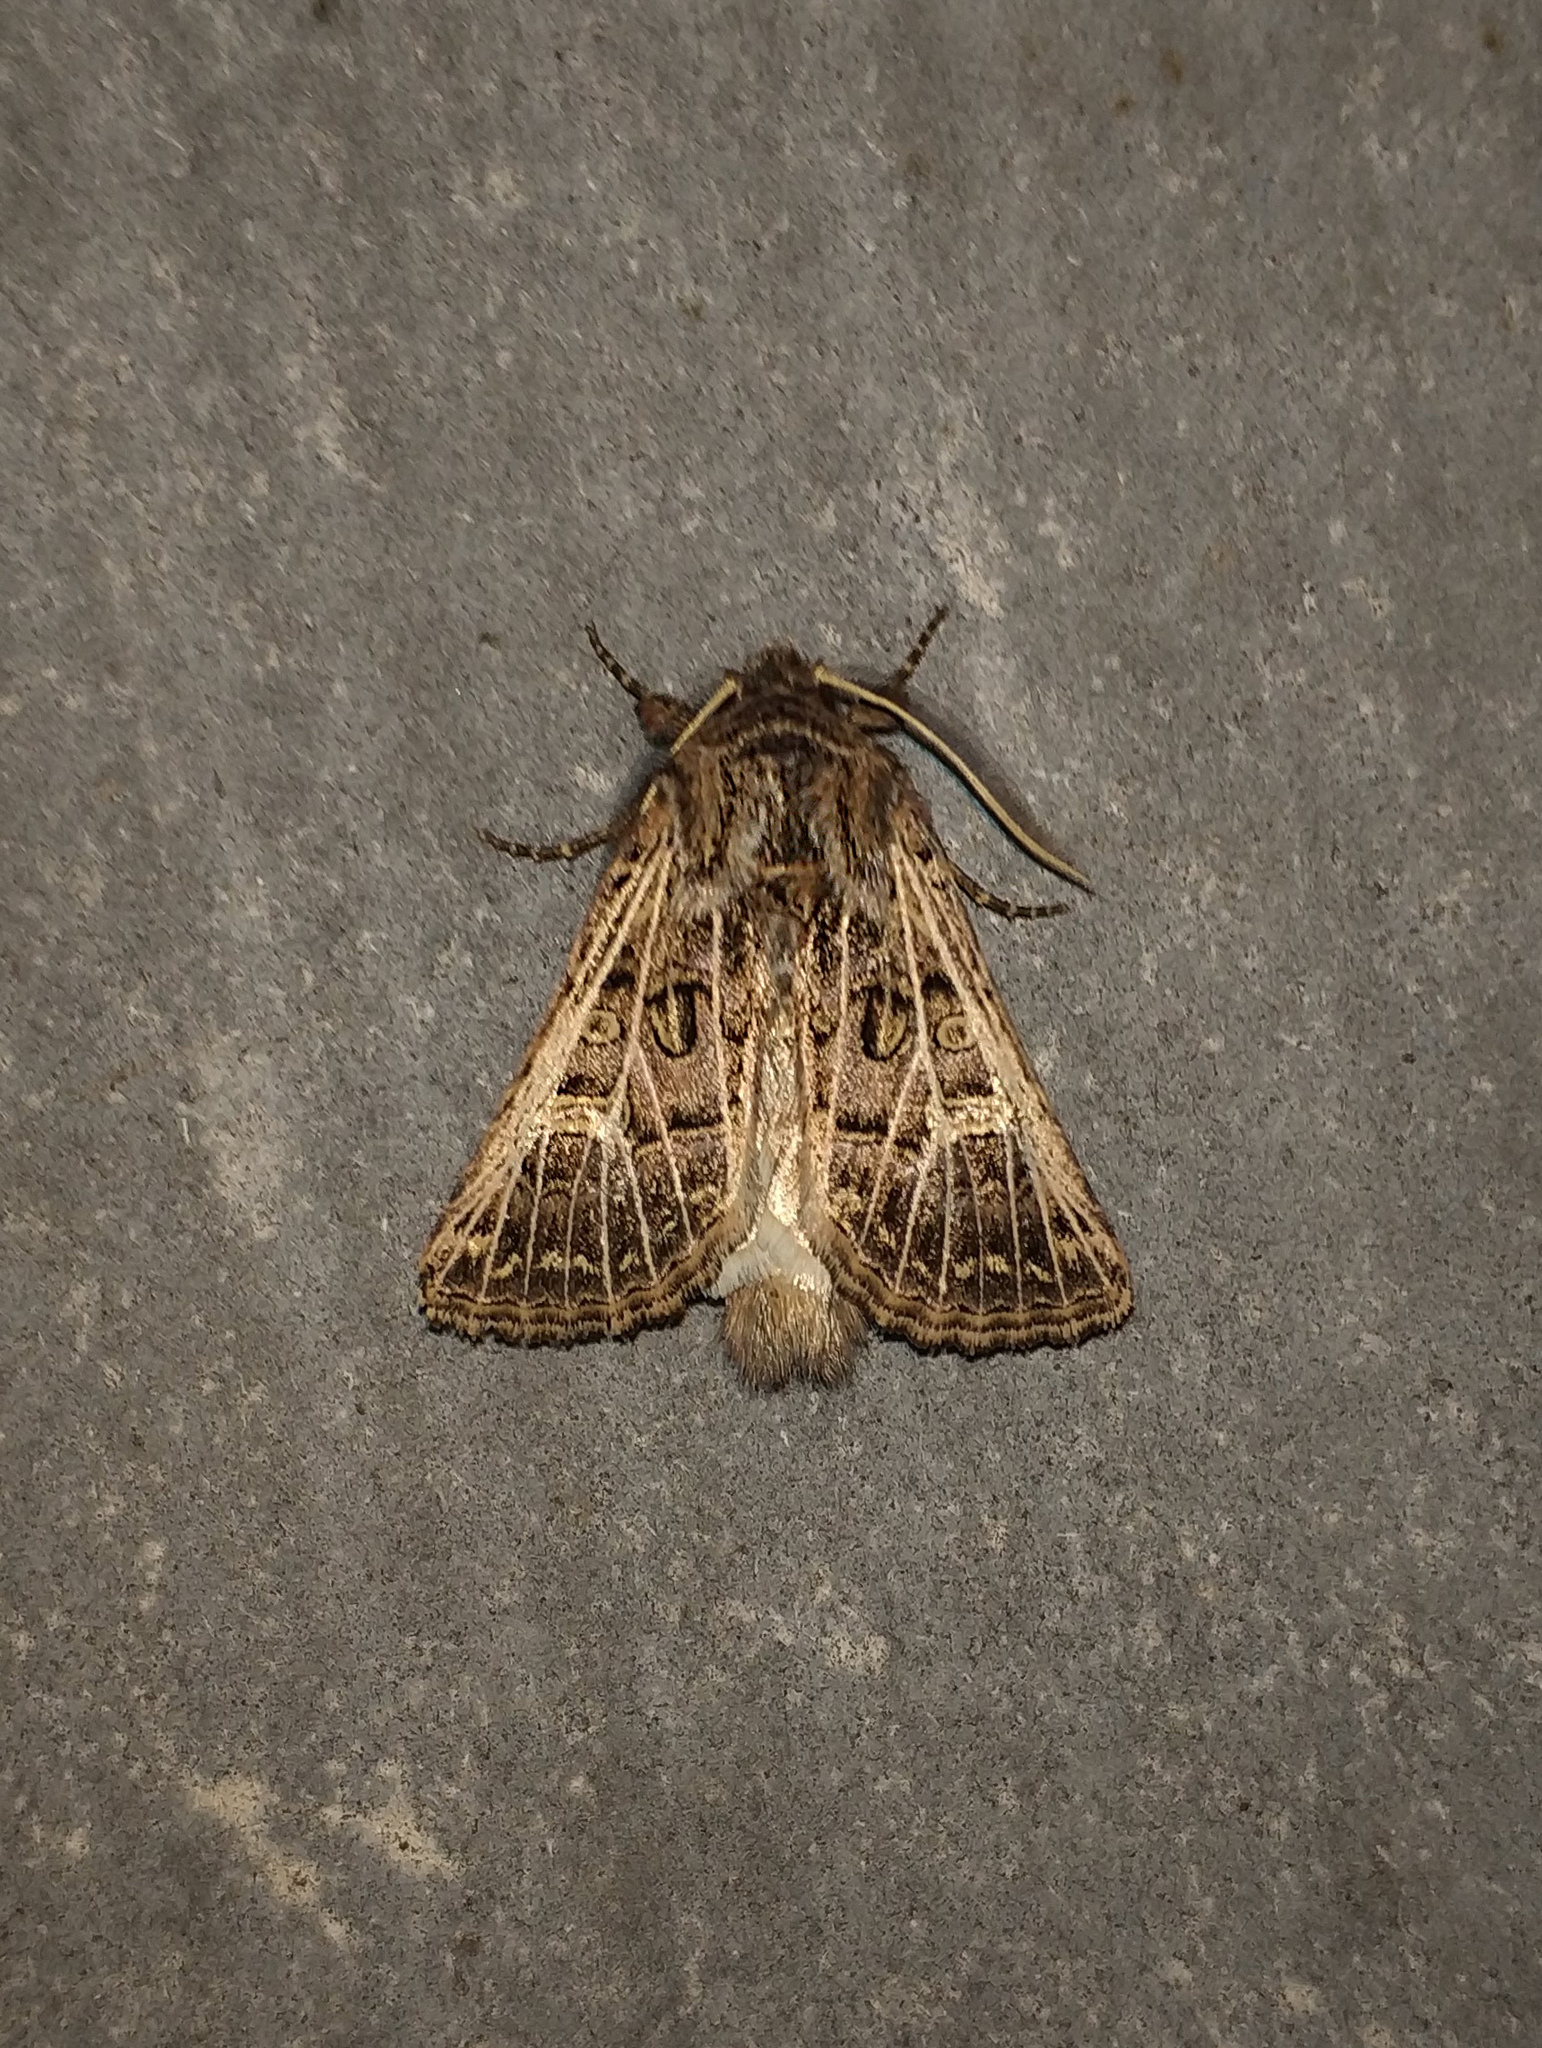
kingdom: Animalia
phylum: Arthropoda
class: Insecta
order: Lepidoptera
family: Noctuidae
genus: Tholera
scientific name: Tholera decimalis
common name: Feathered gothic
